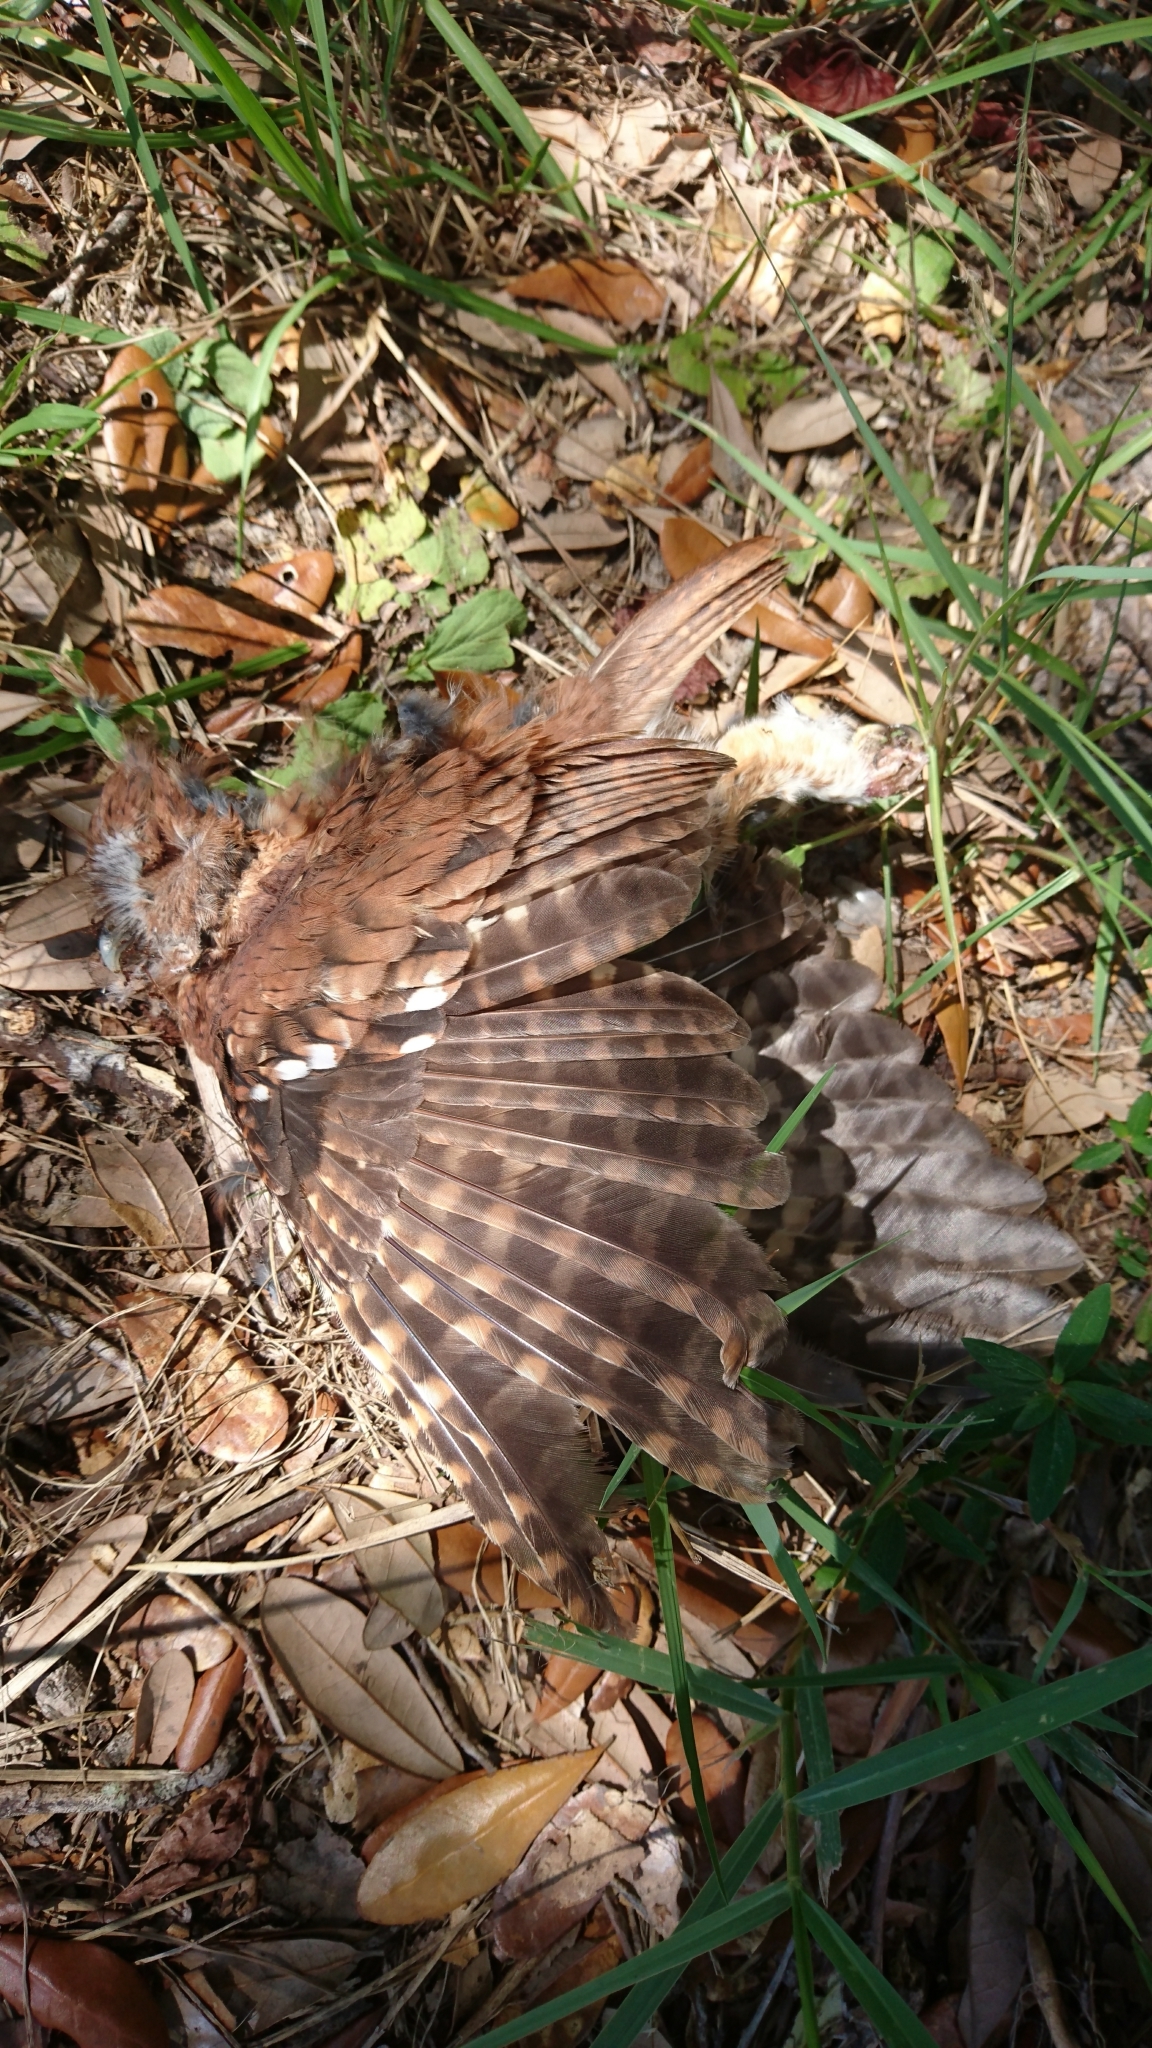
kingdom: Animalia
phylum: Chordata
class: Aves
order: Strigiformes
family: Strigidae
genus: Megascops
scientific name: Megascops asio
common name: Eastern screech-owl
